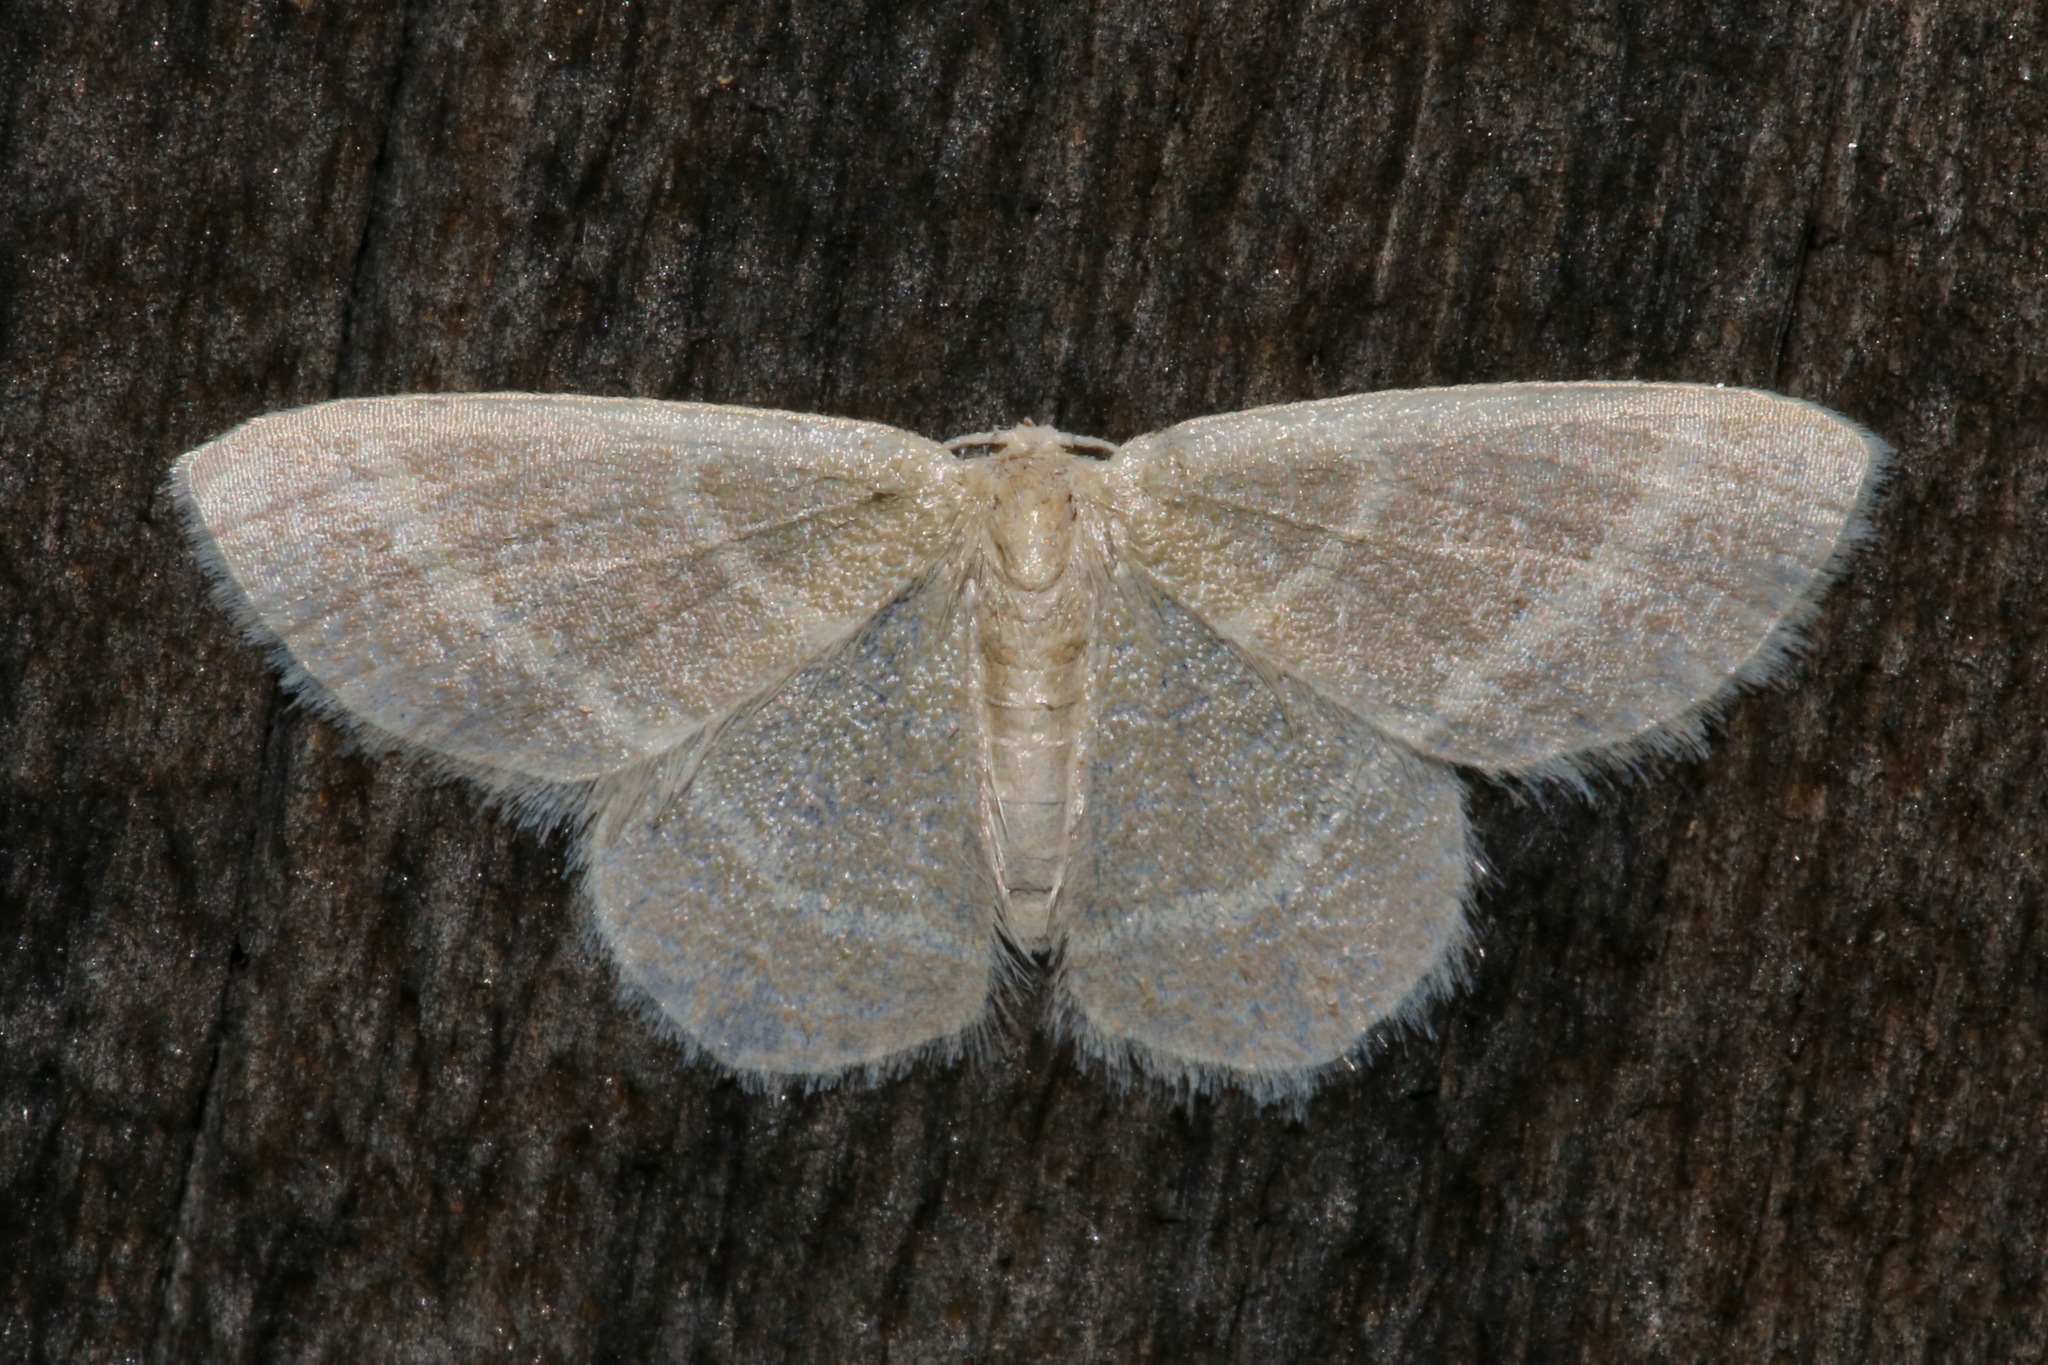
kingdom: Animalia
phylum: Arthropoda
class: Insecta
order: Lepidoptera
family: Geometridae
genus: Chlorochlamys
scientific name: Chlorochlamys chloroleucaria
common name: Blackberry looper
